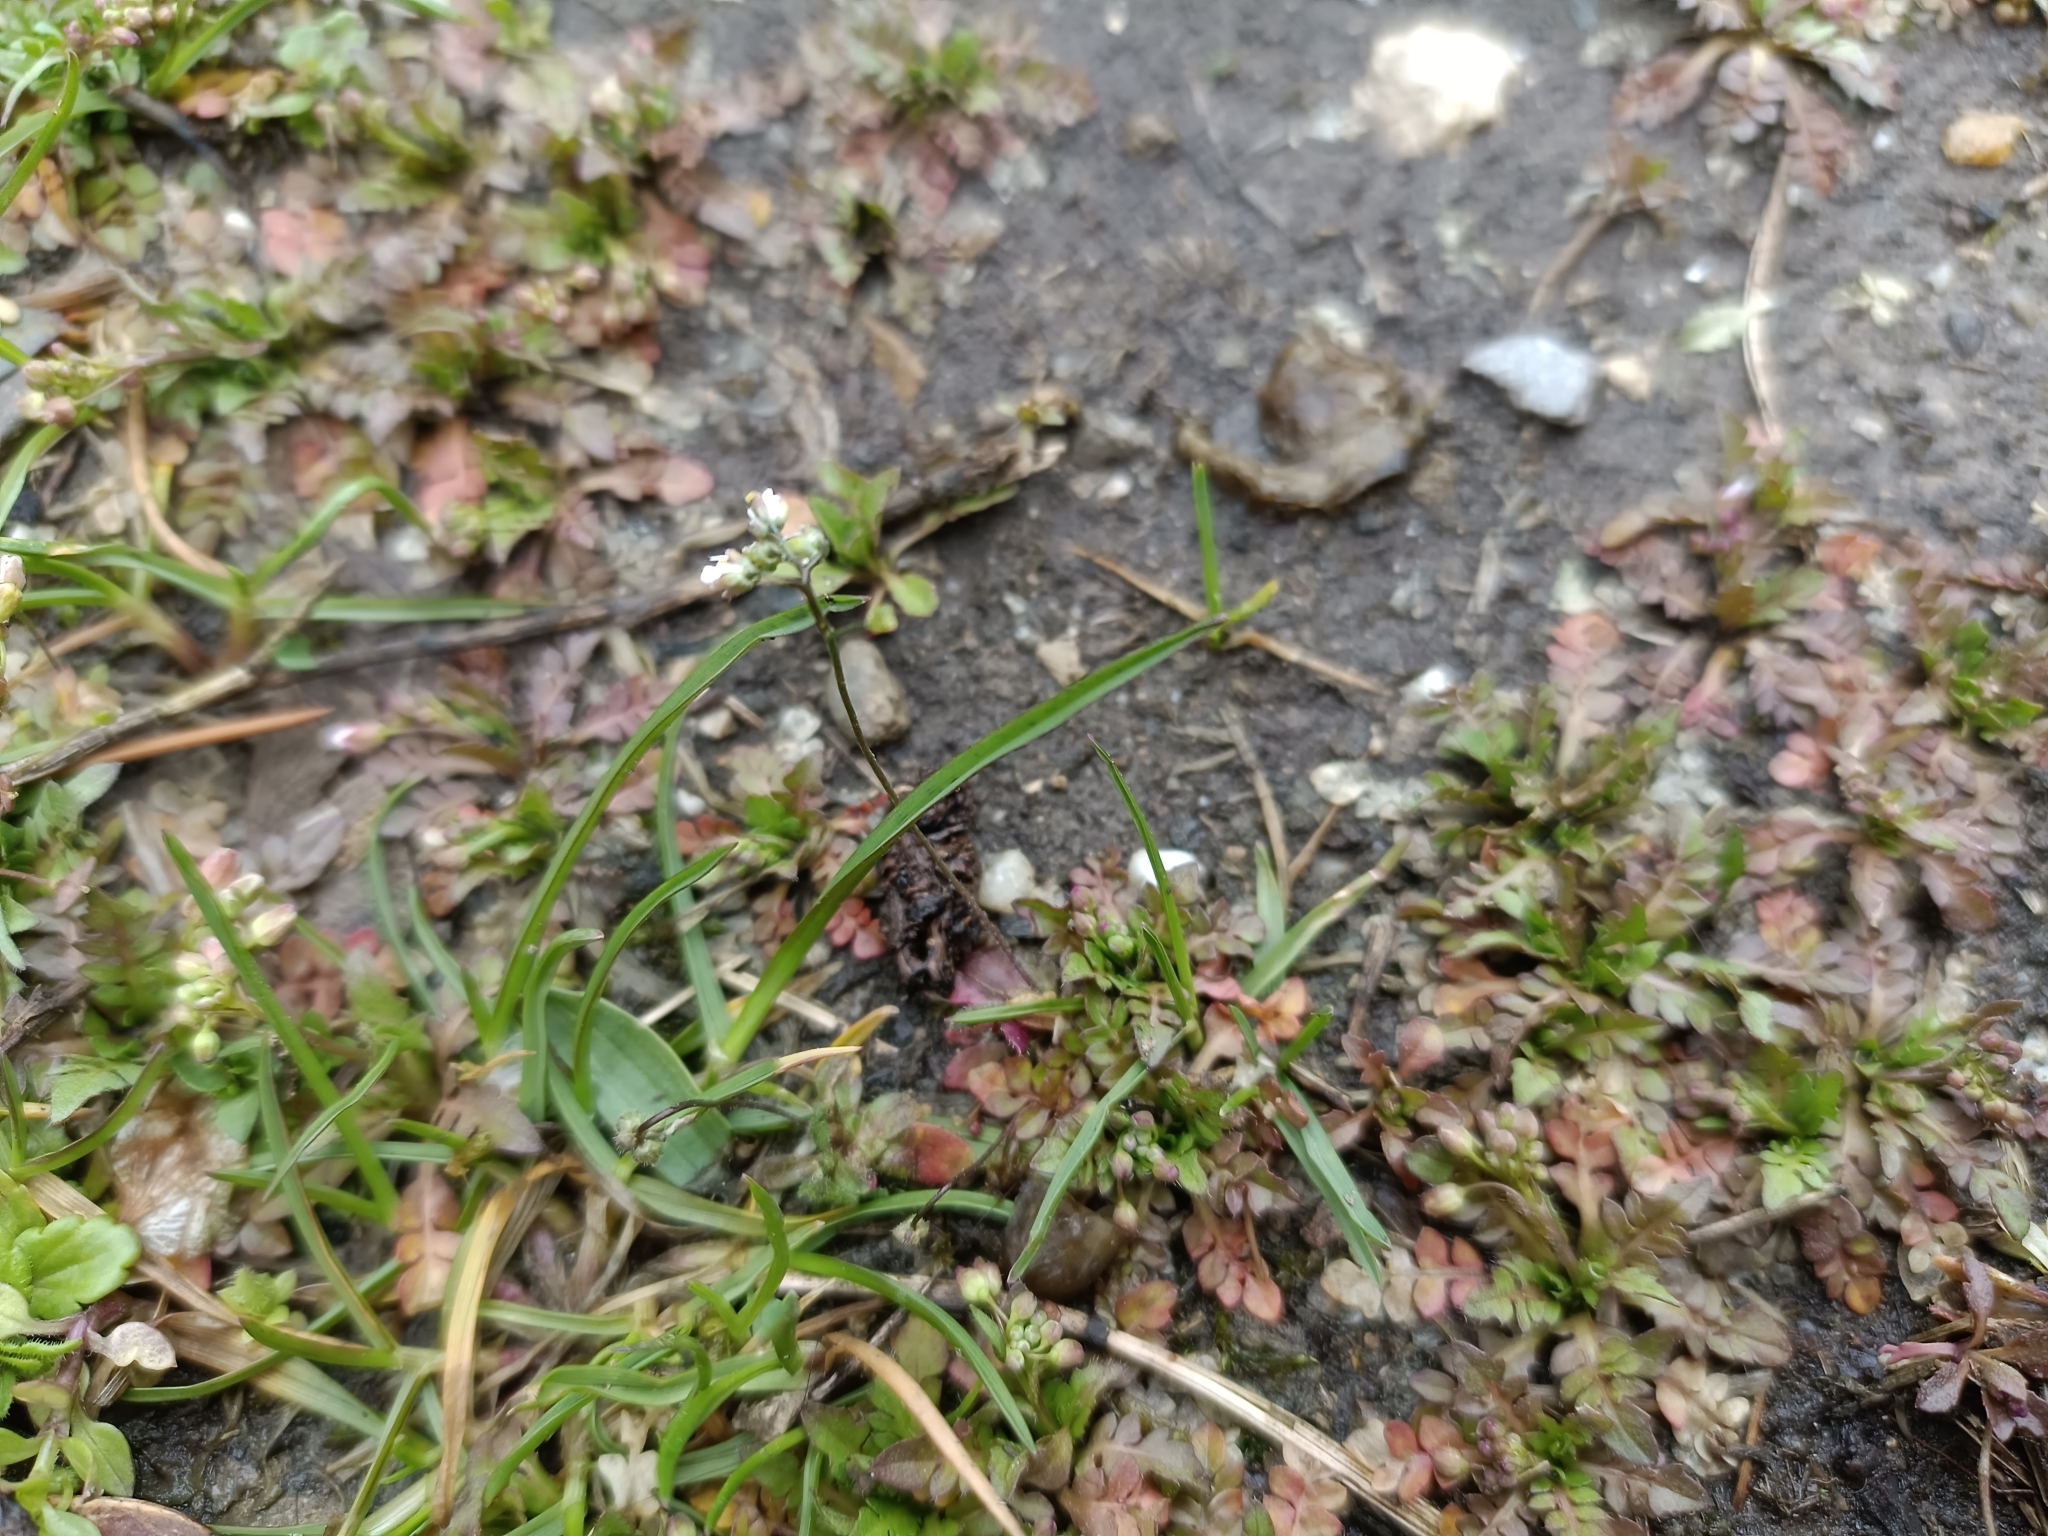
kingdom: Plantae
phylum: Tracheophyta
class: Magnoliopsida
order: Brassicales
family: Brassicaceae
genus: Draba
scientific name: Draba verna
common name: Spring draba
